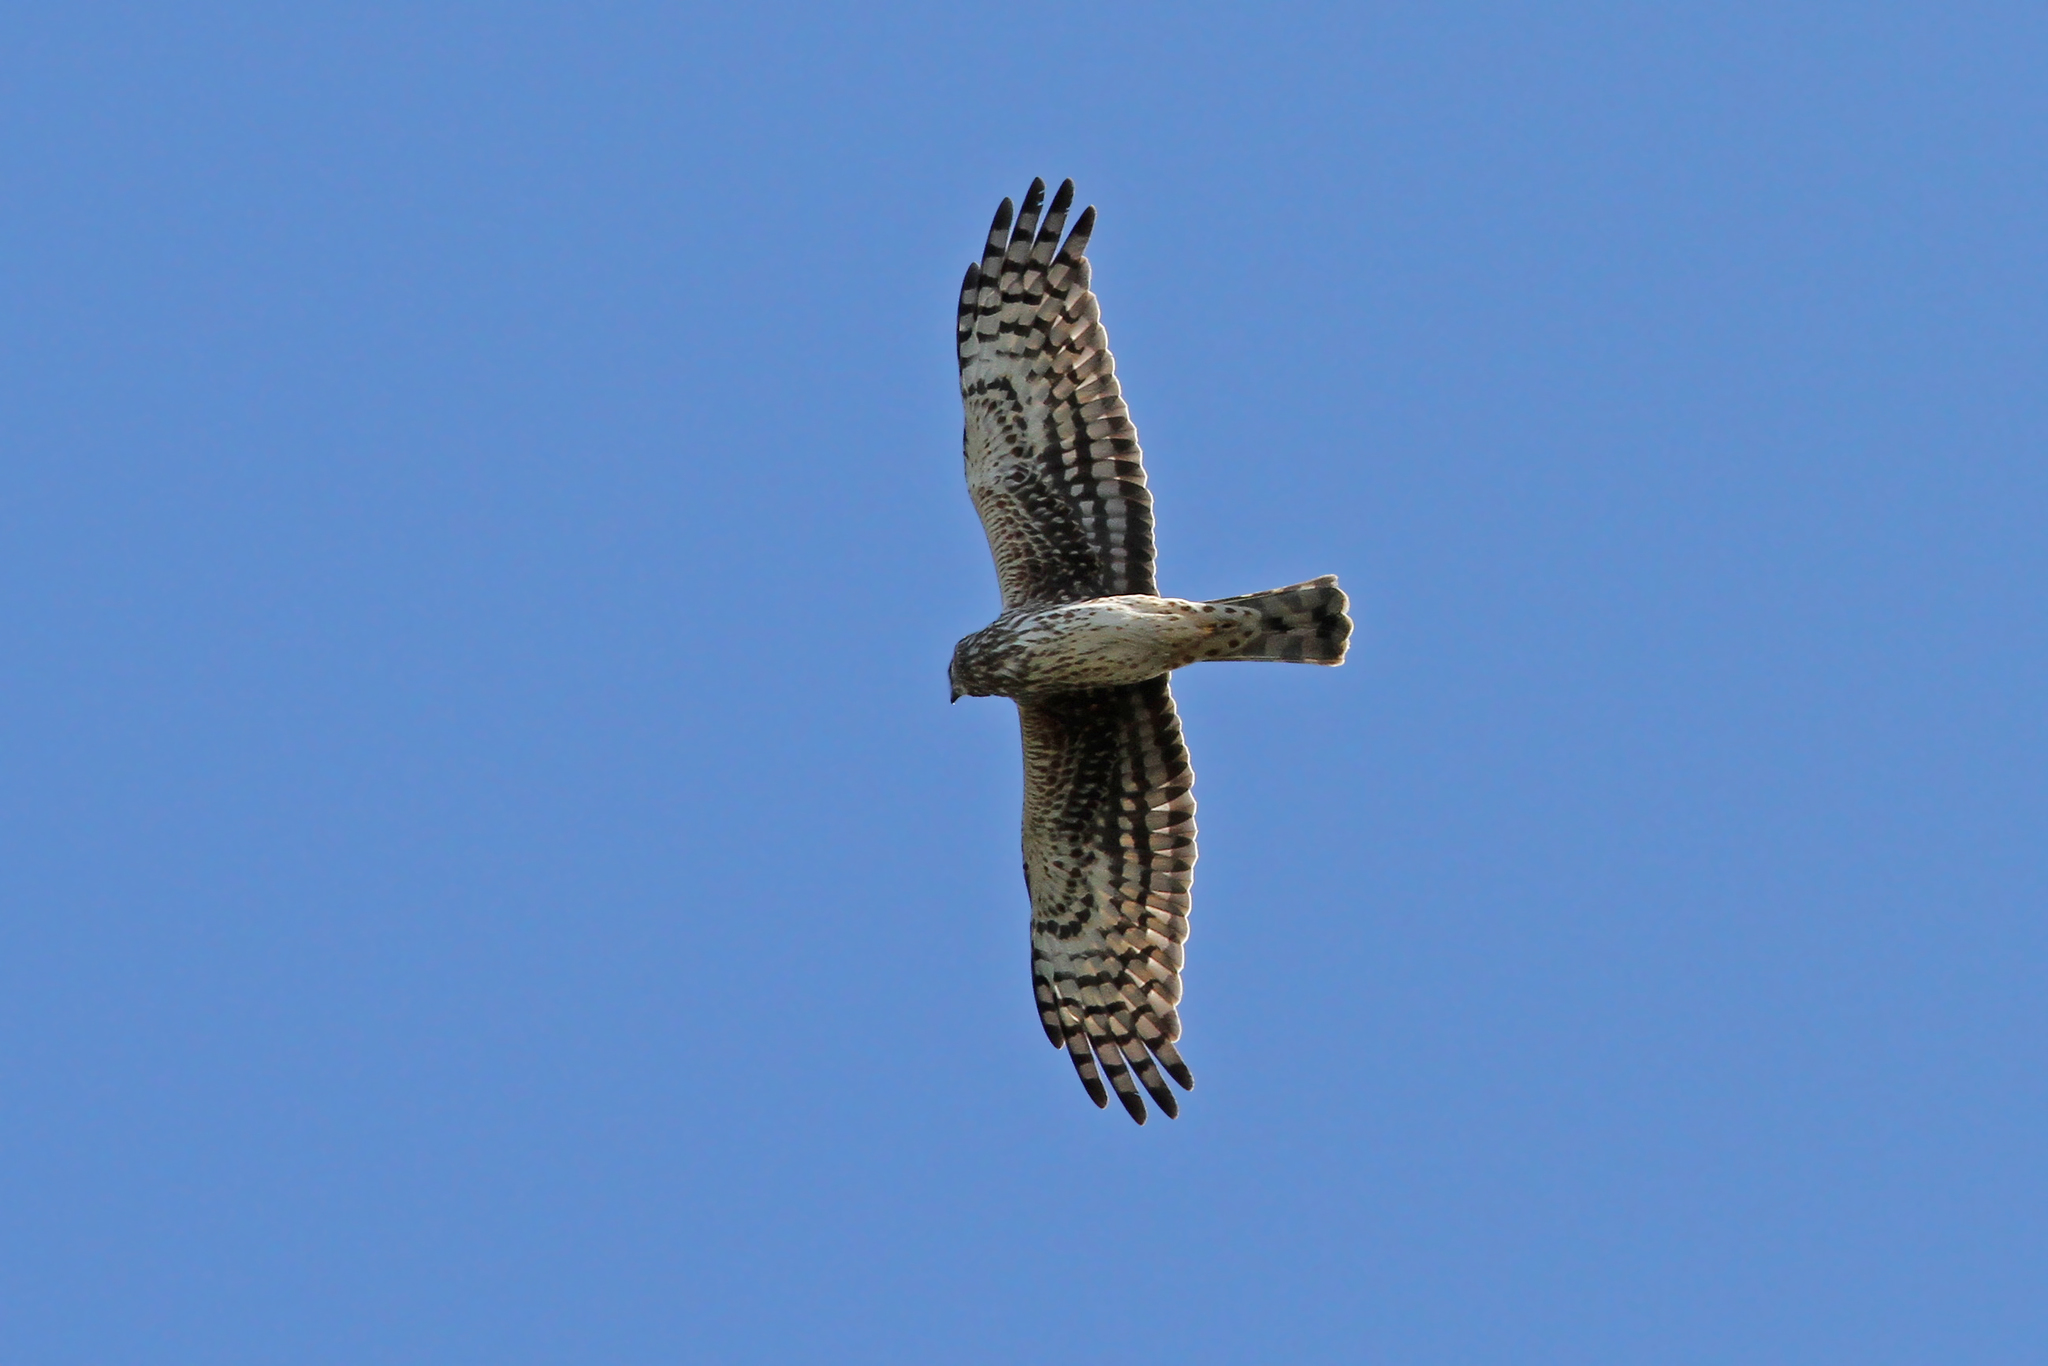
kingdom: Animalia
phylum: Chordata
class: Aves
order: Accipitriformes
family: Accipitridae
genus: Circus
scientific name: Circus cyaneus
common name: Hen harrier
